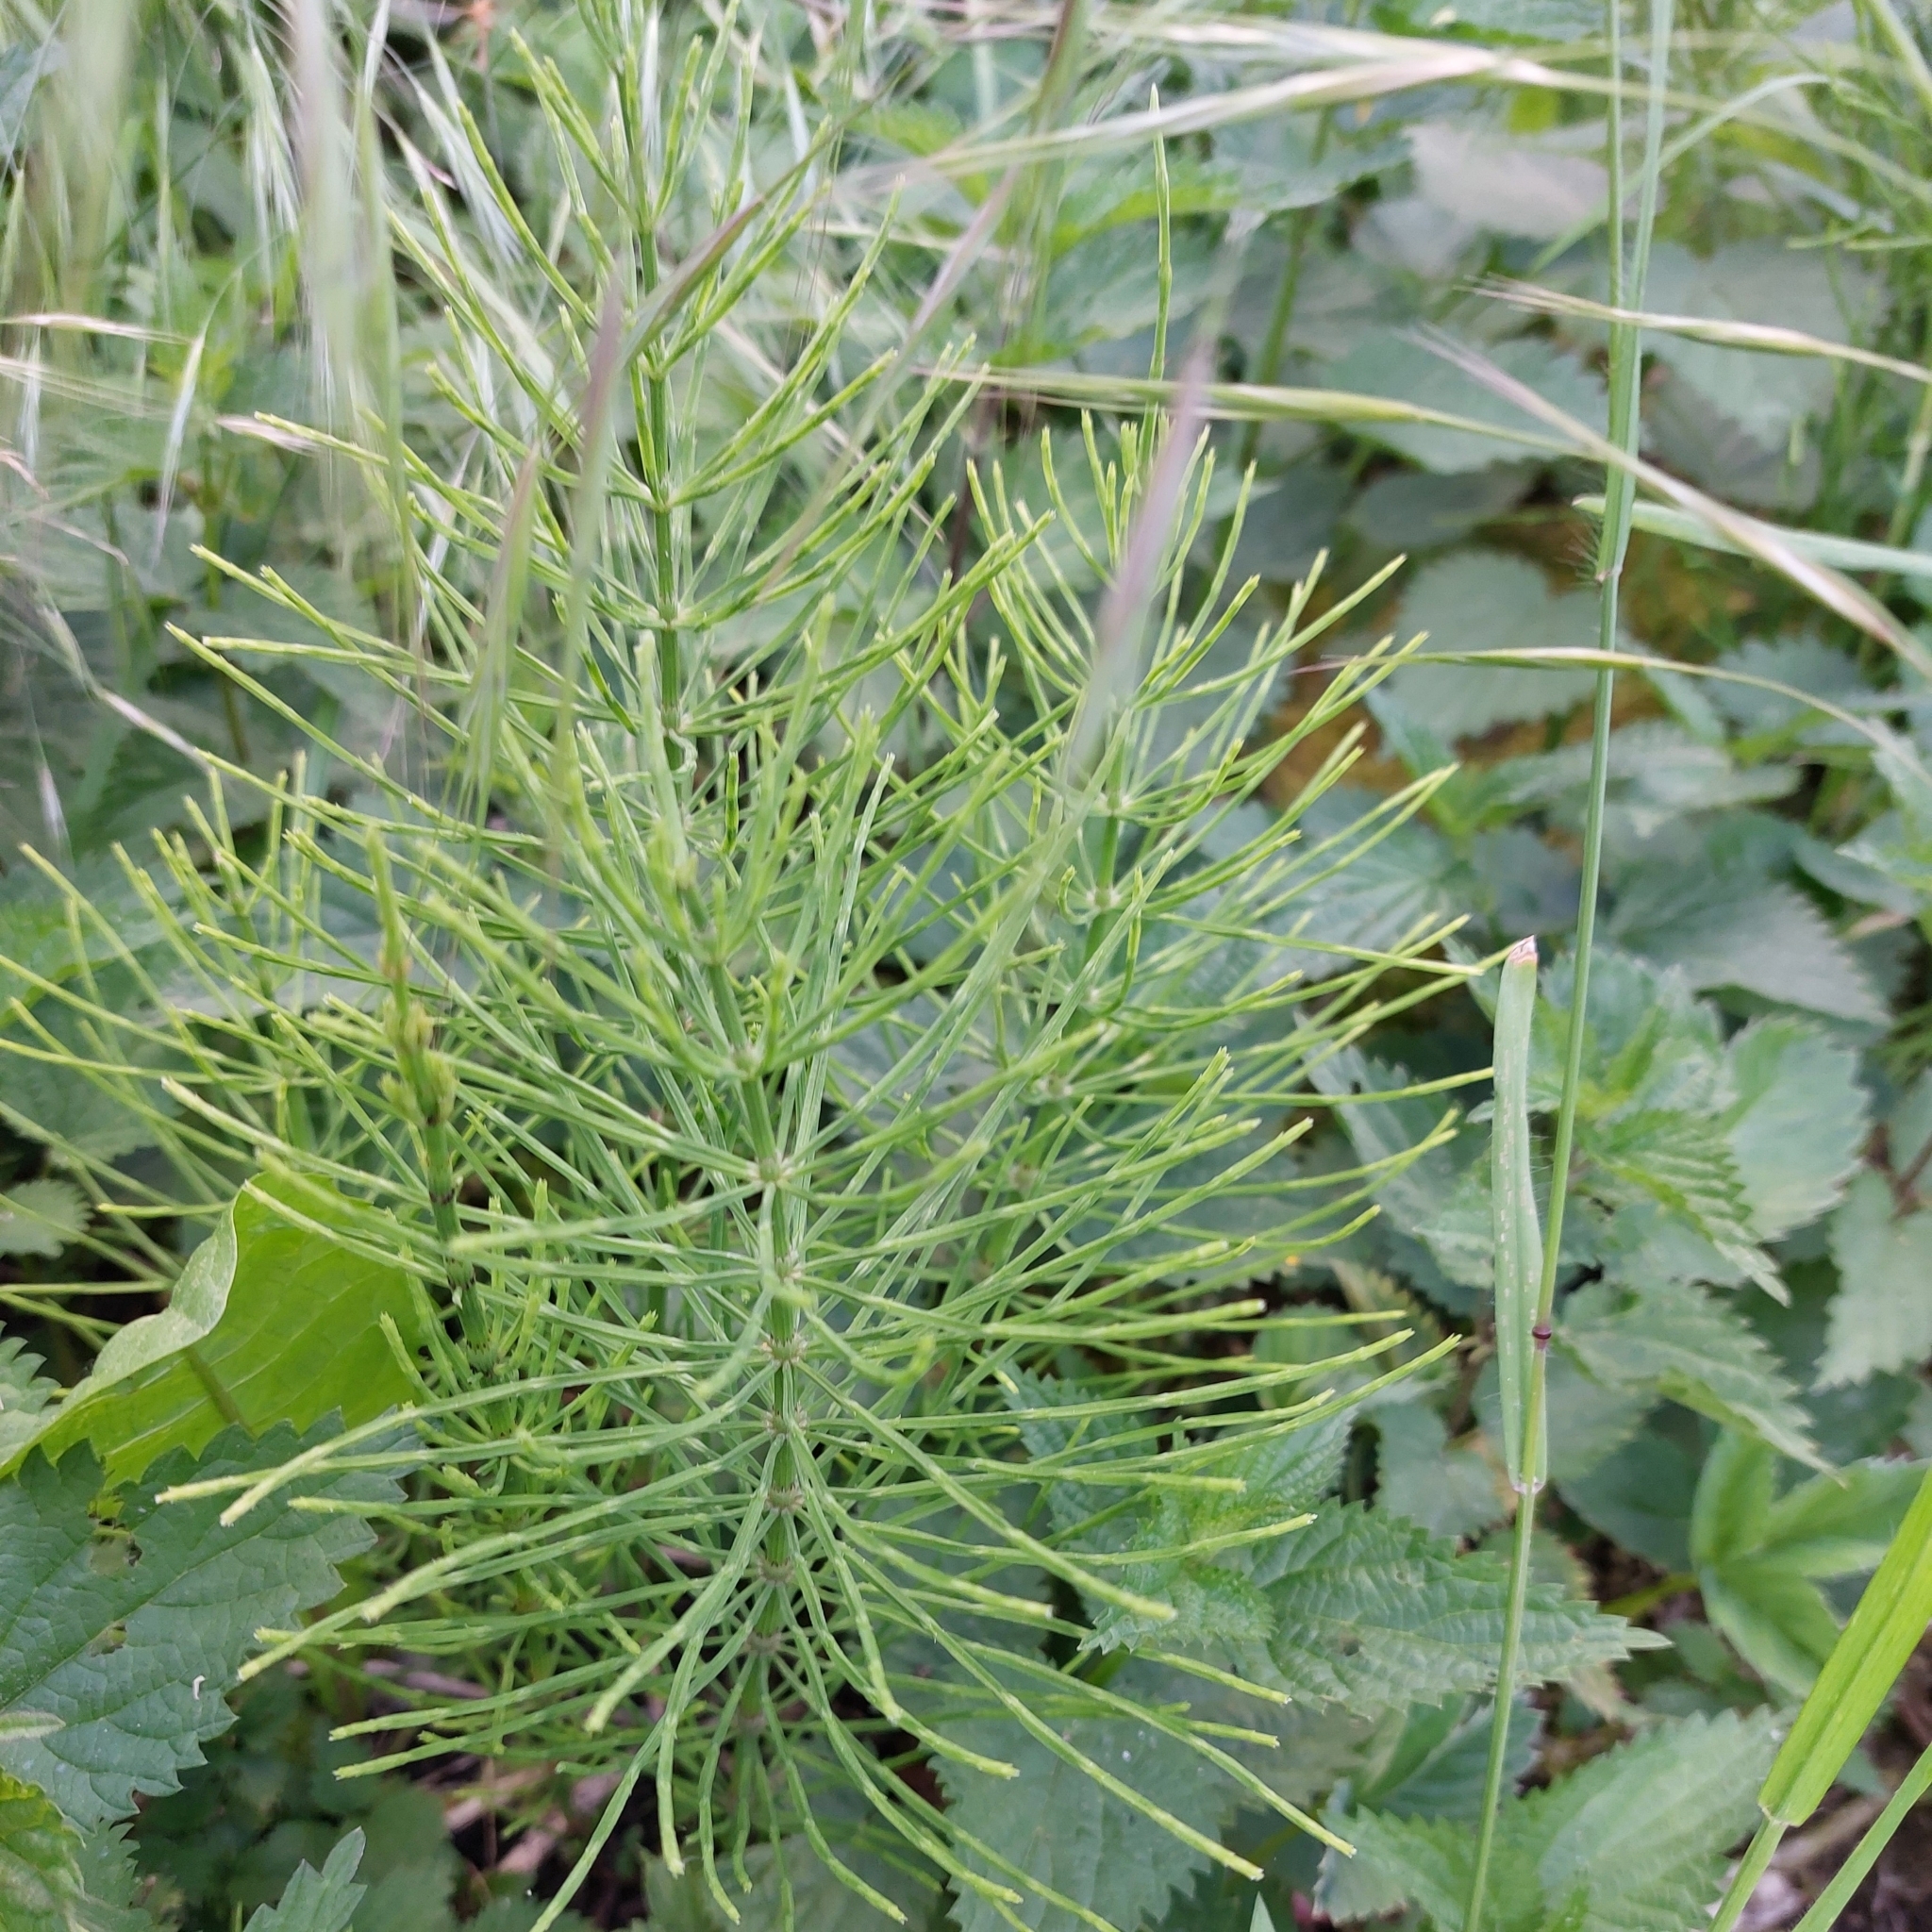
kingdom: Plantae
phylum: Tracheophyta
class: Polypodiopsida
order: Equisetales
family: Equisetaceae
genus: Equisetum
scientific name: Equisetum arvense
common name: Field horsetail
